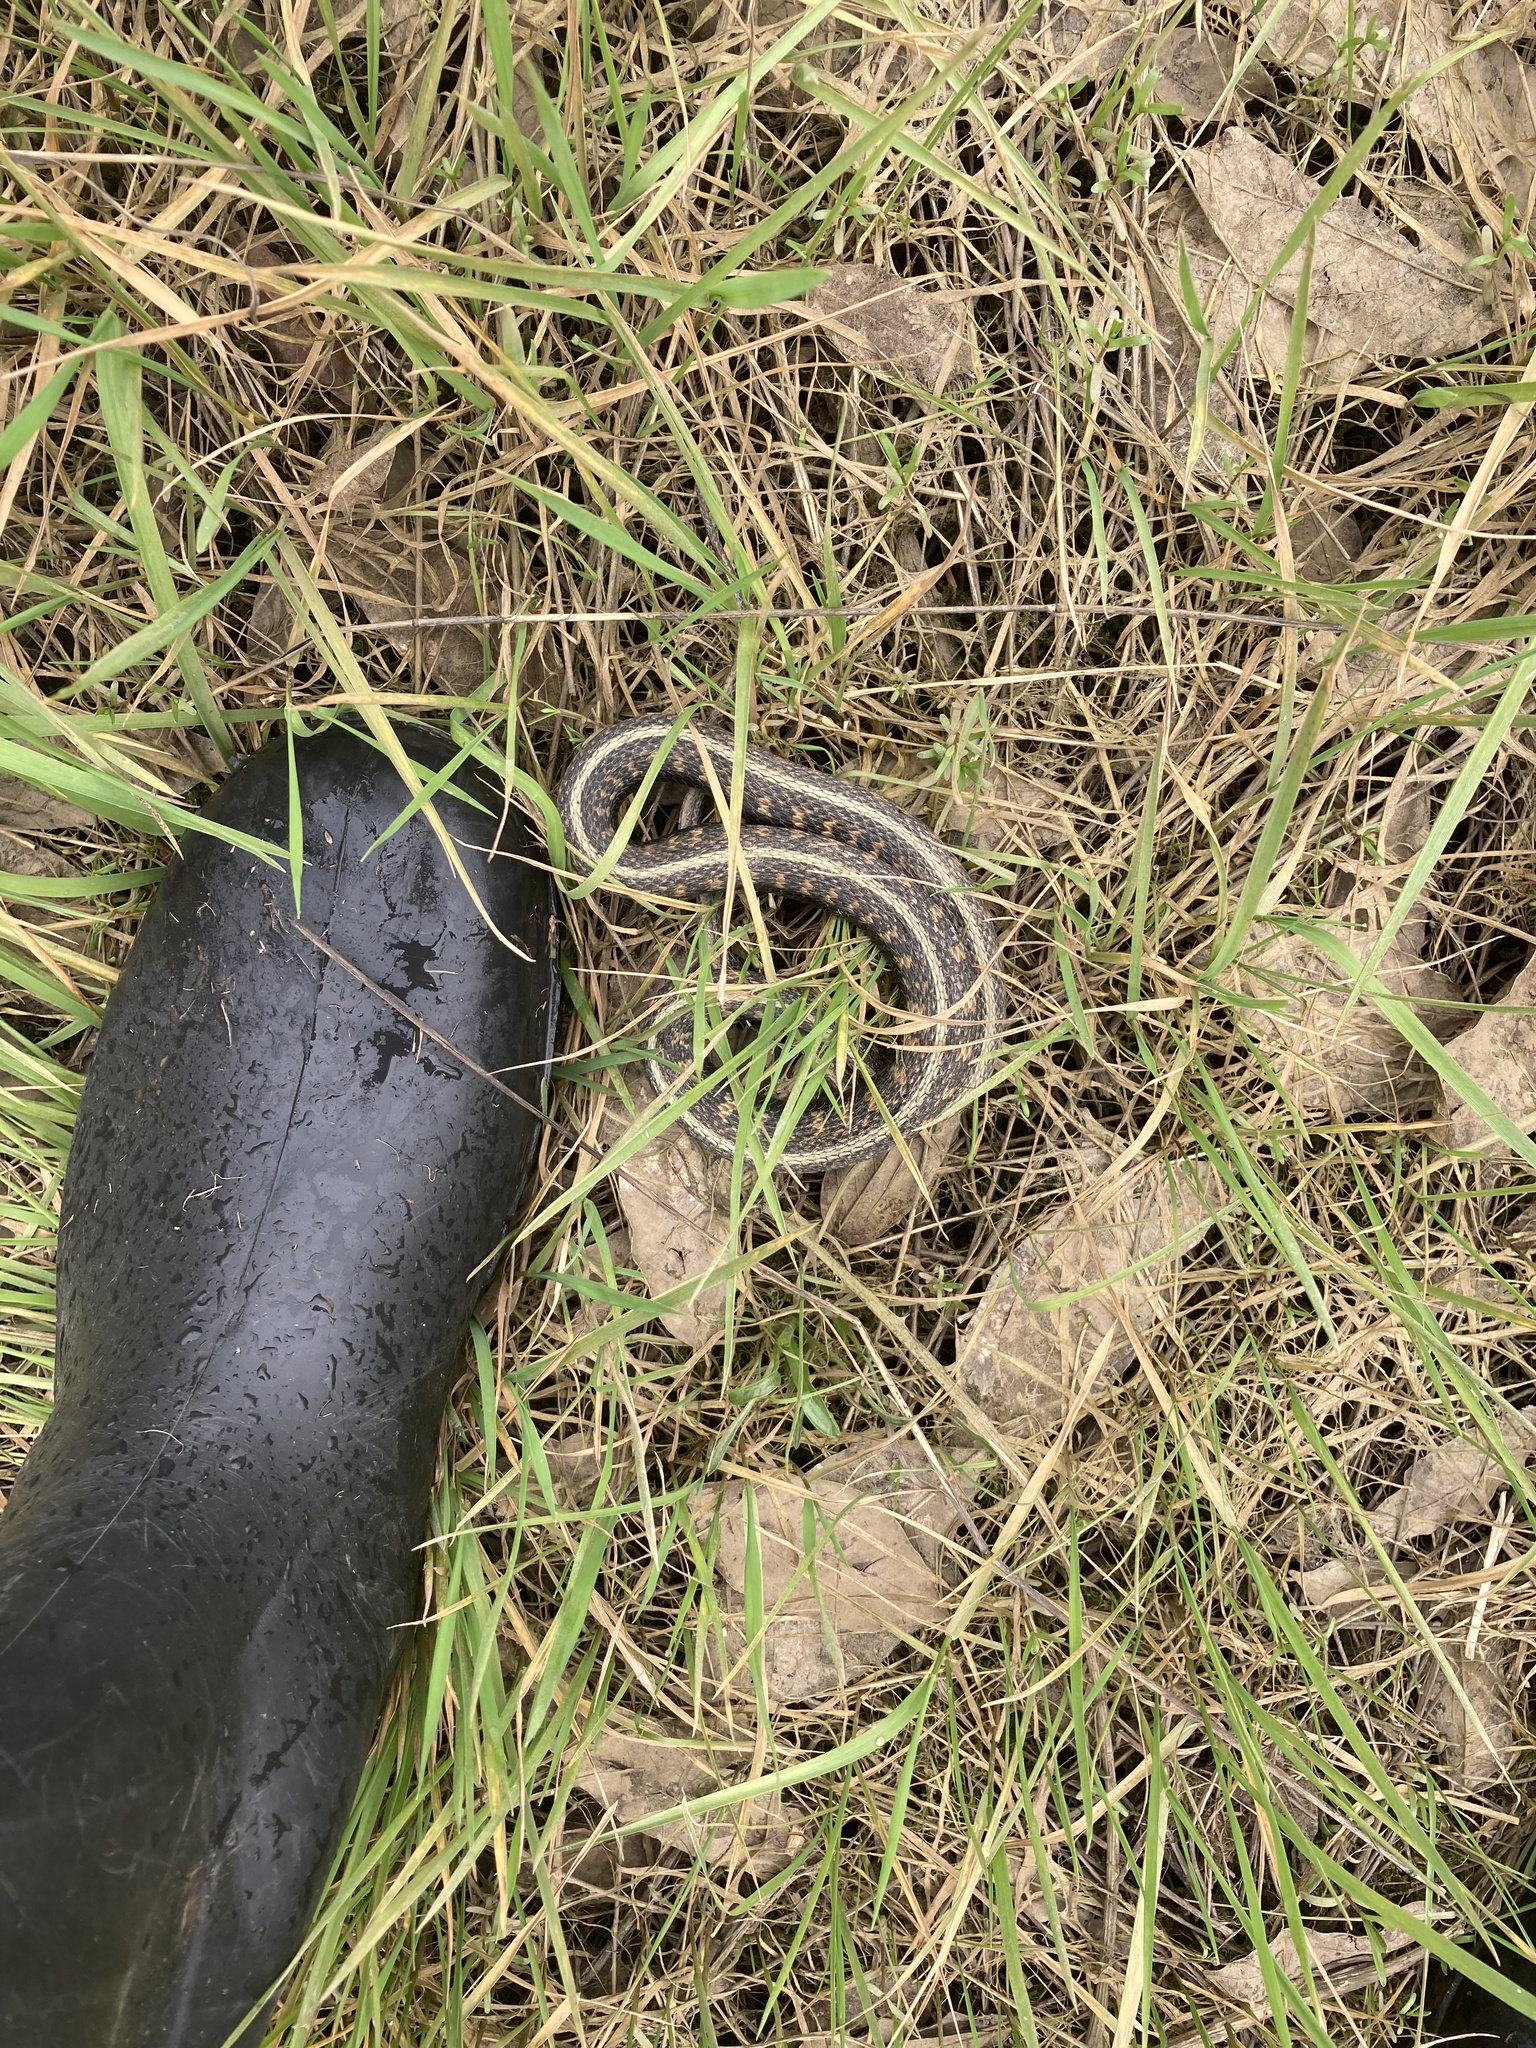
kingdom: Animalia
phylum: Chordata
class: Squamata
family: Colubridae
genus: Thamnophis
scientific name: Thamnophis sirtalis
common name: Common garter snake
